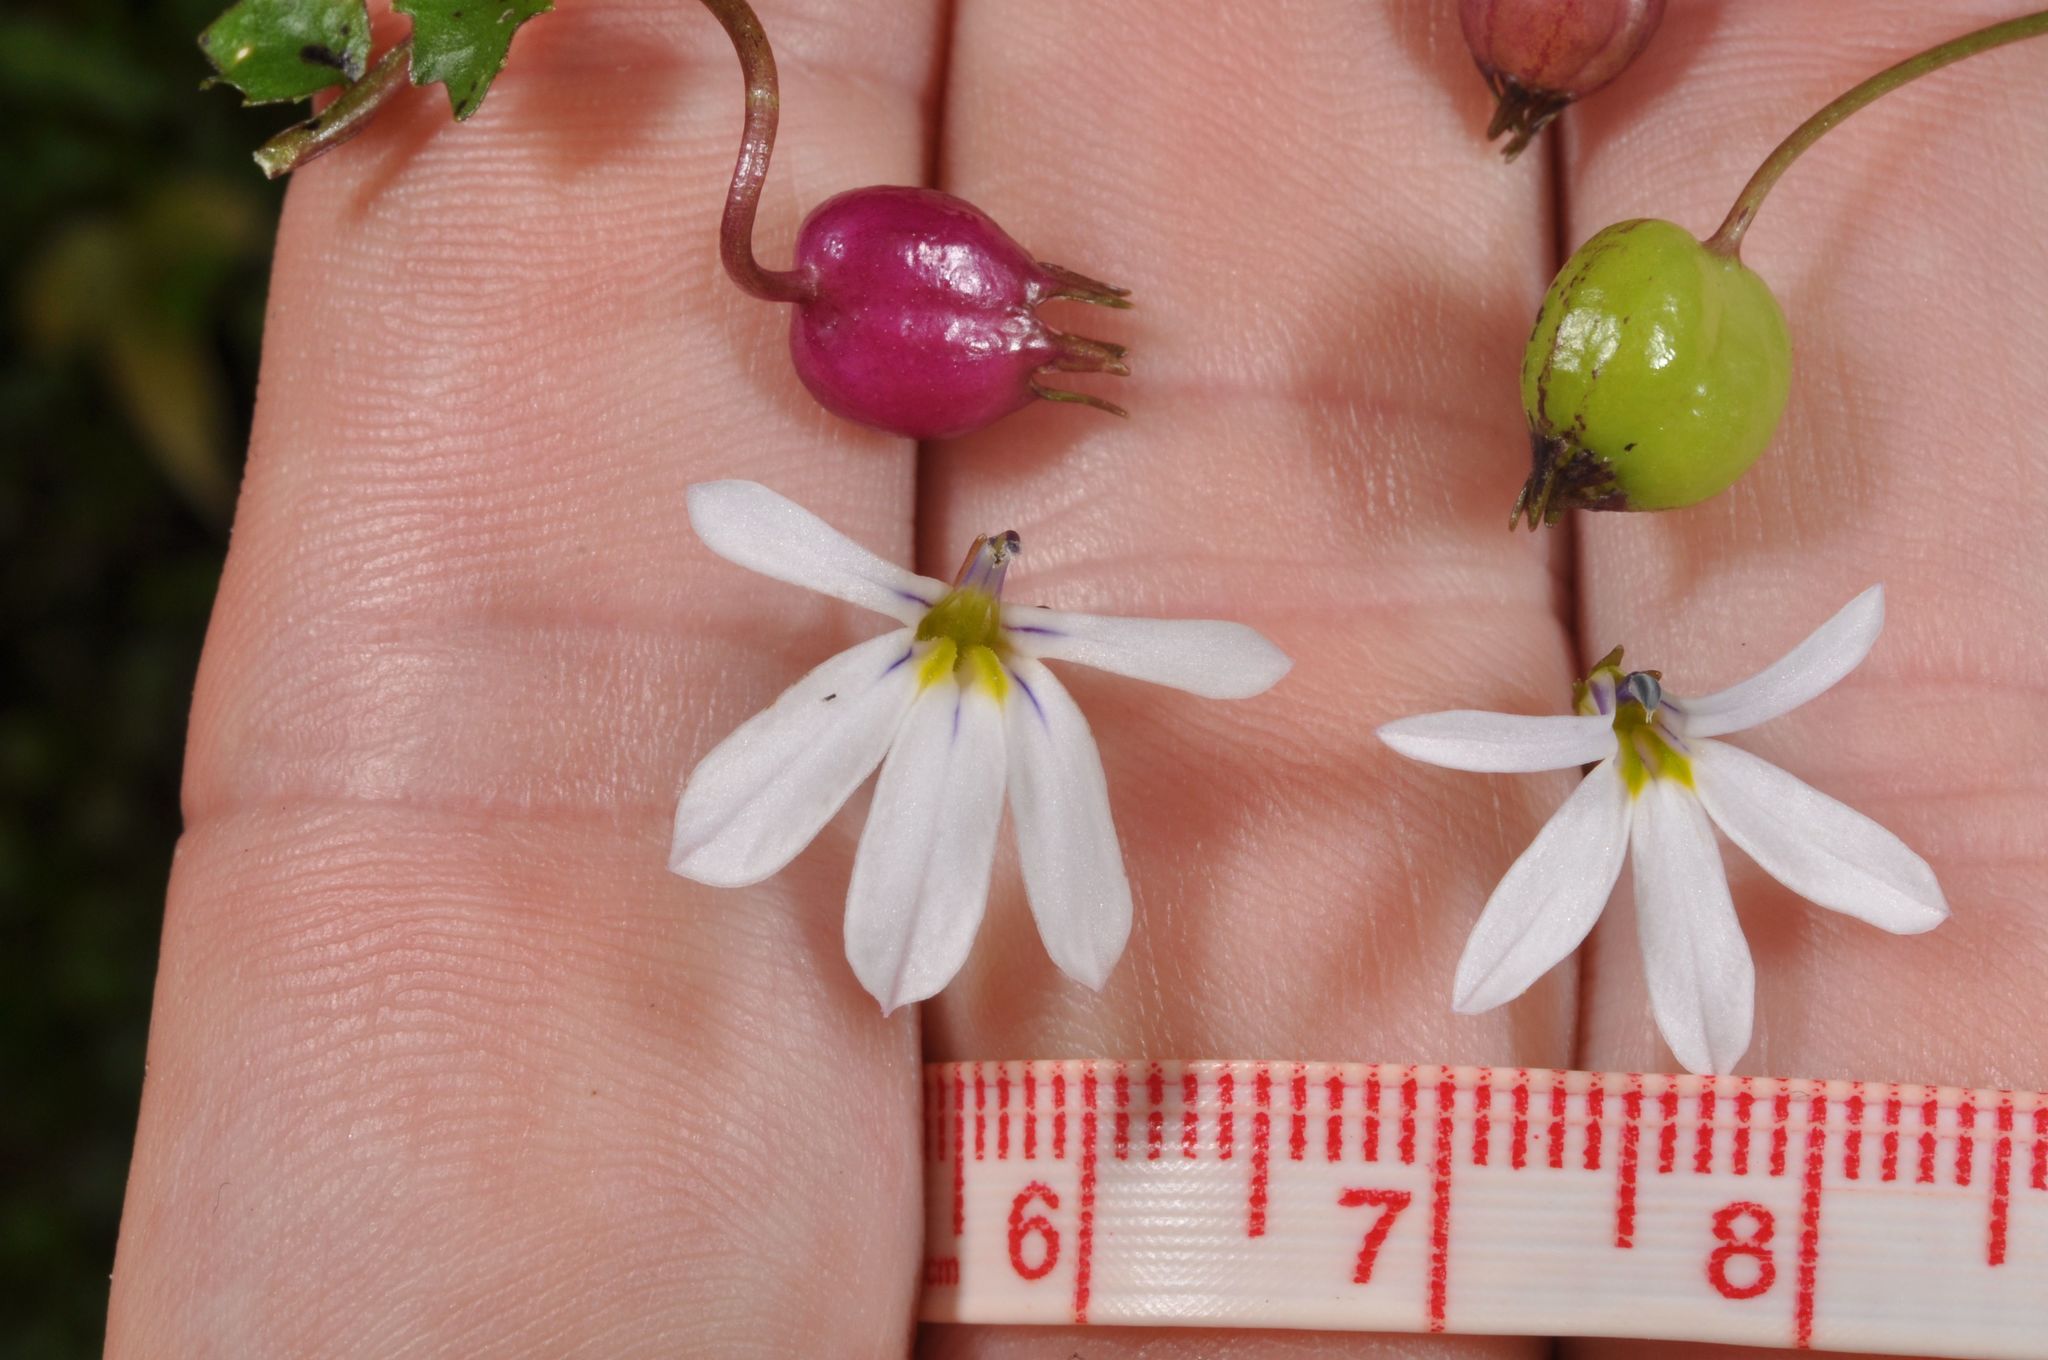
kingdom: Plantae
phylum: Tracheophyta
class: Magnoliopsida
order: Asterales
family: Campanulaceae
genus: Lobelia
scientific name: Lobelia angulata
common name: Lawn lobelia
